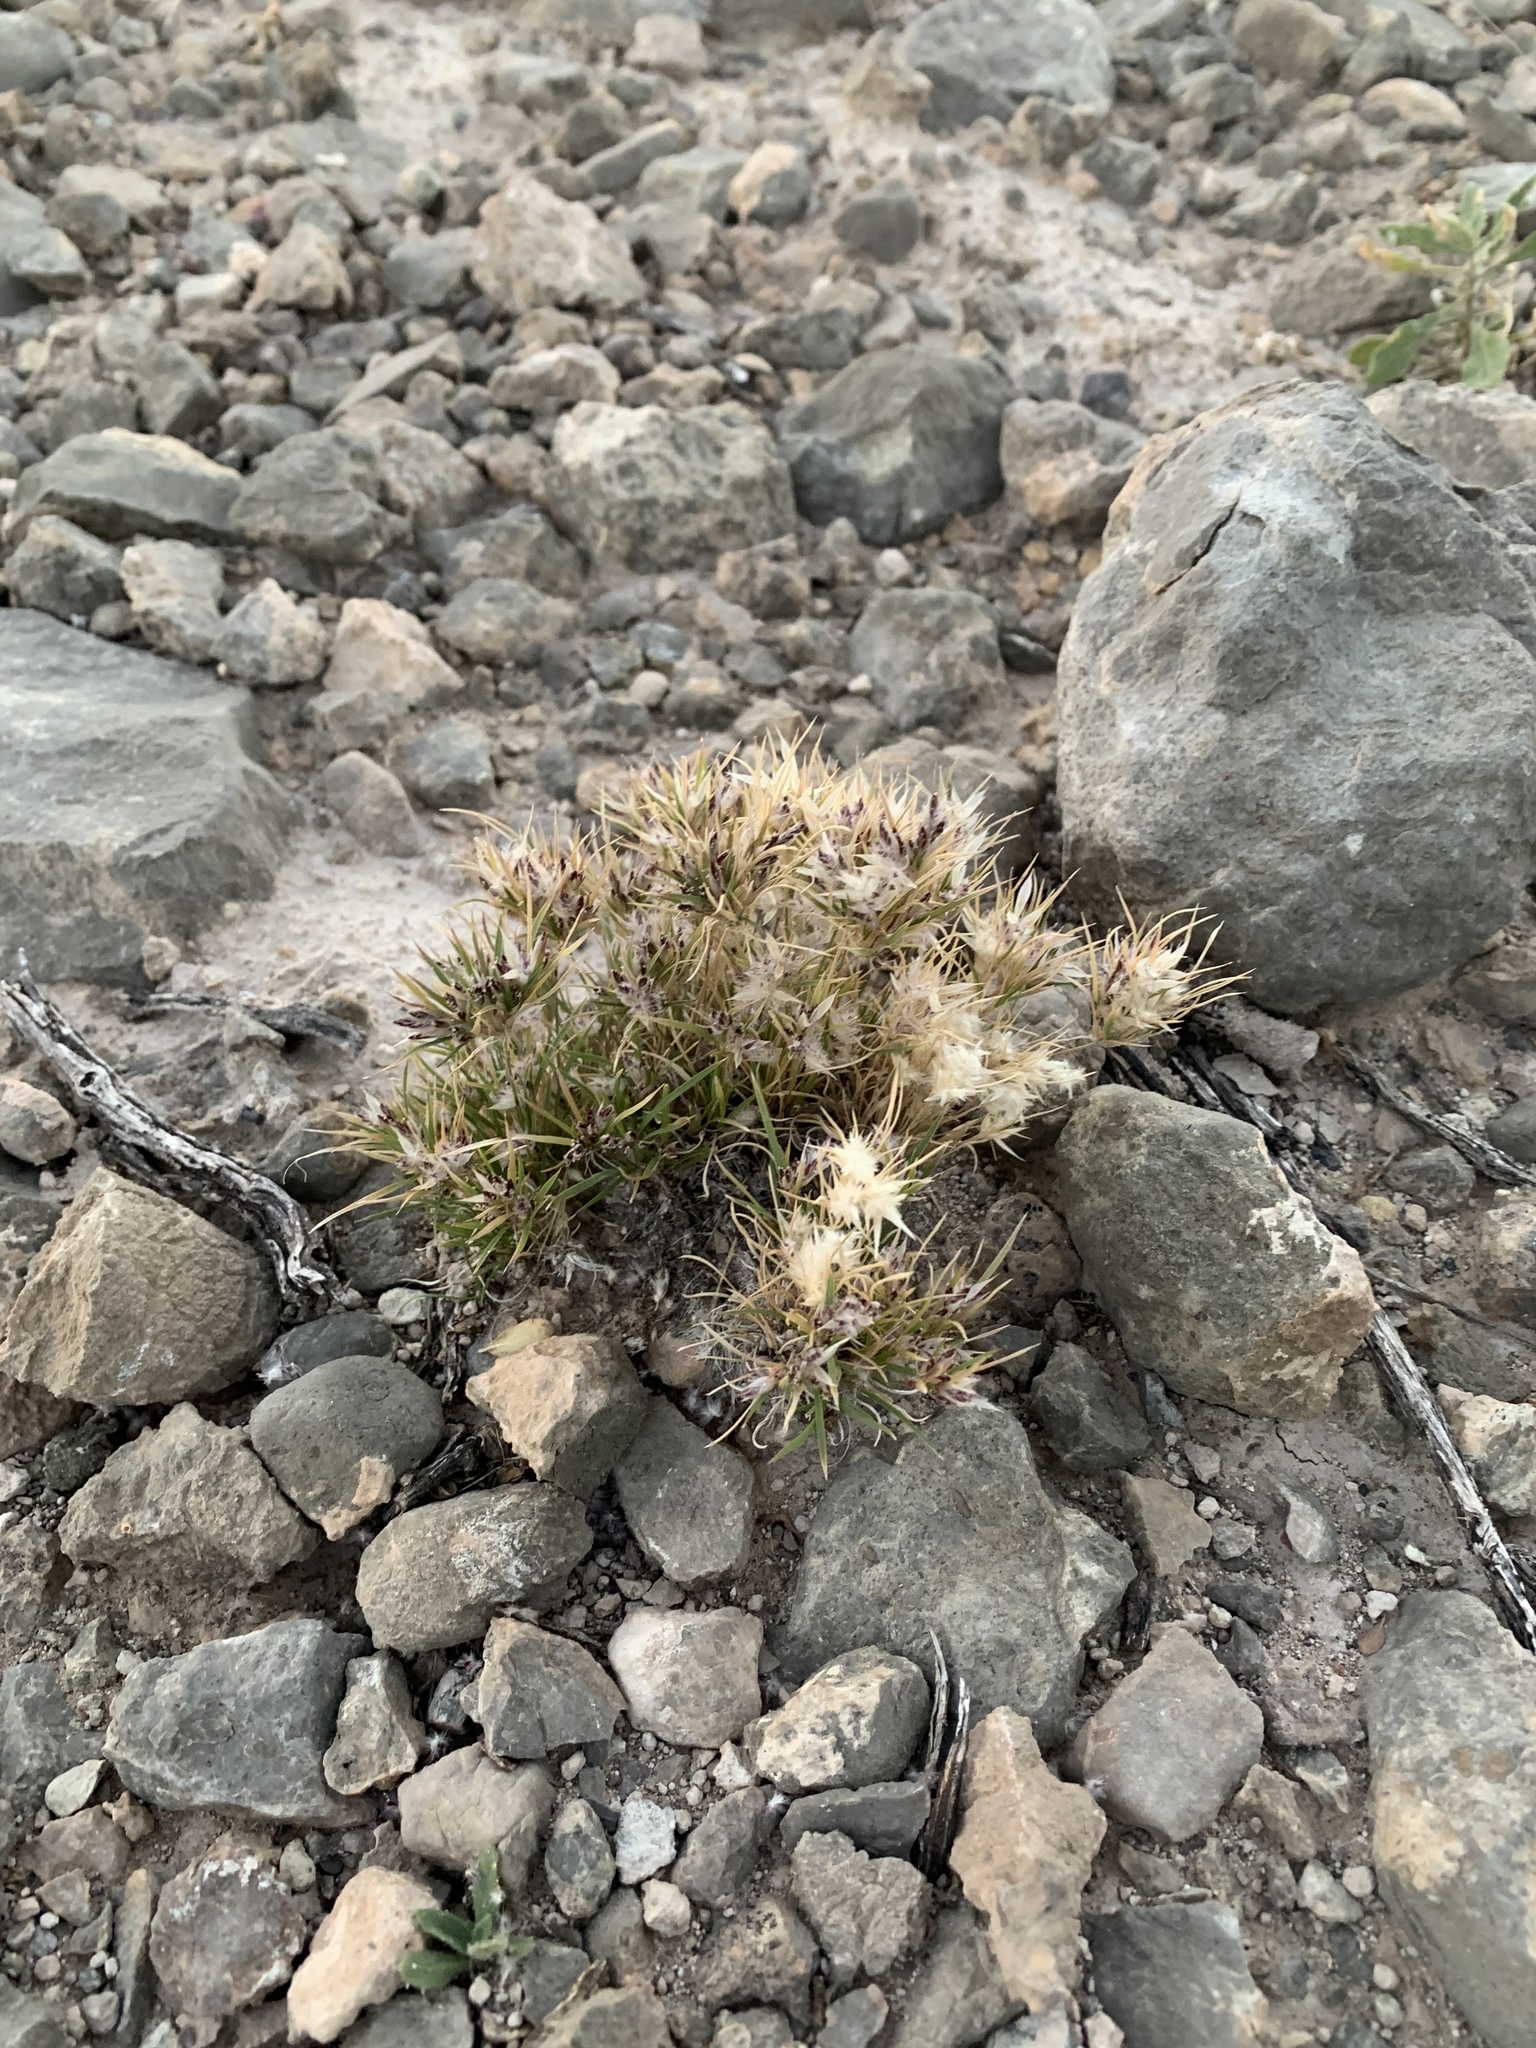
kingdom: Plantae
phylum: Tracheophyta
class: Liliopsida
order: Poales
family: Poaceae
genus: Dasyochloa
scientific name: Dasyochloa pulchella
